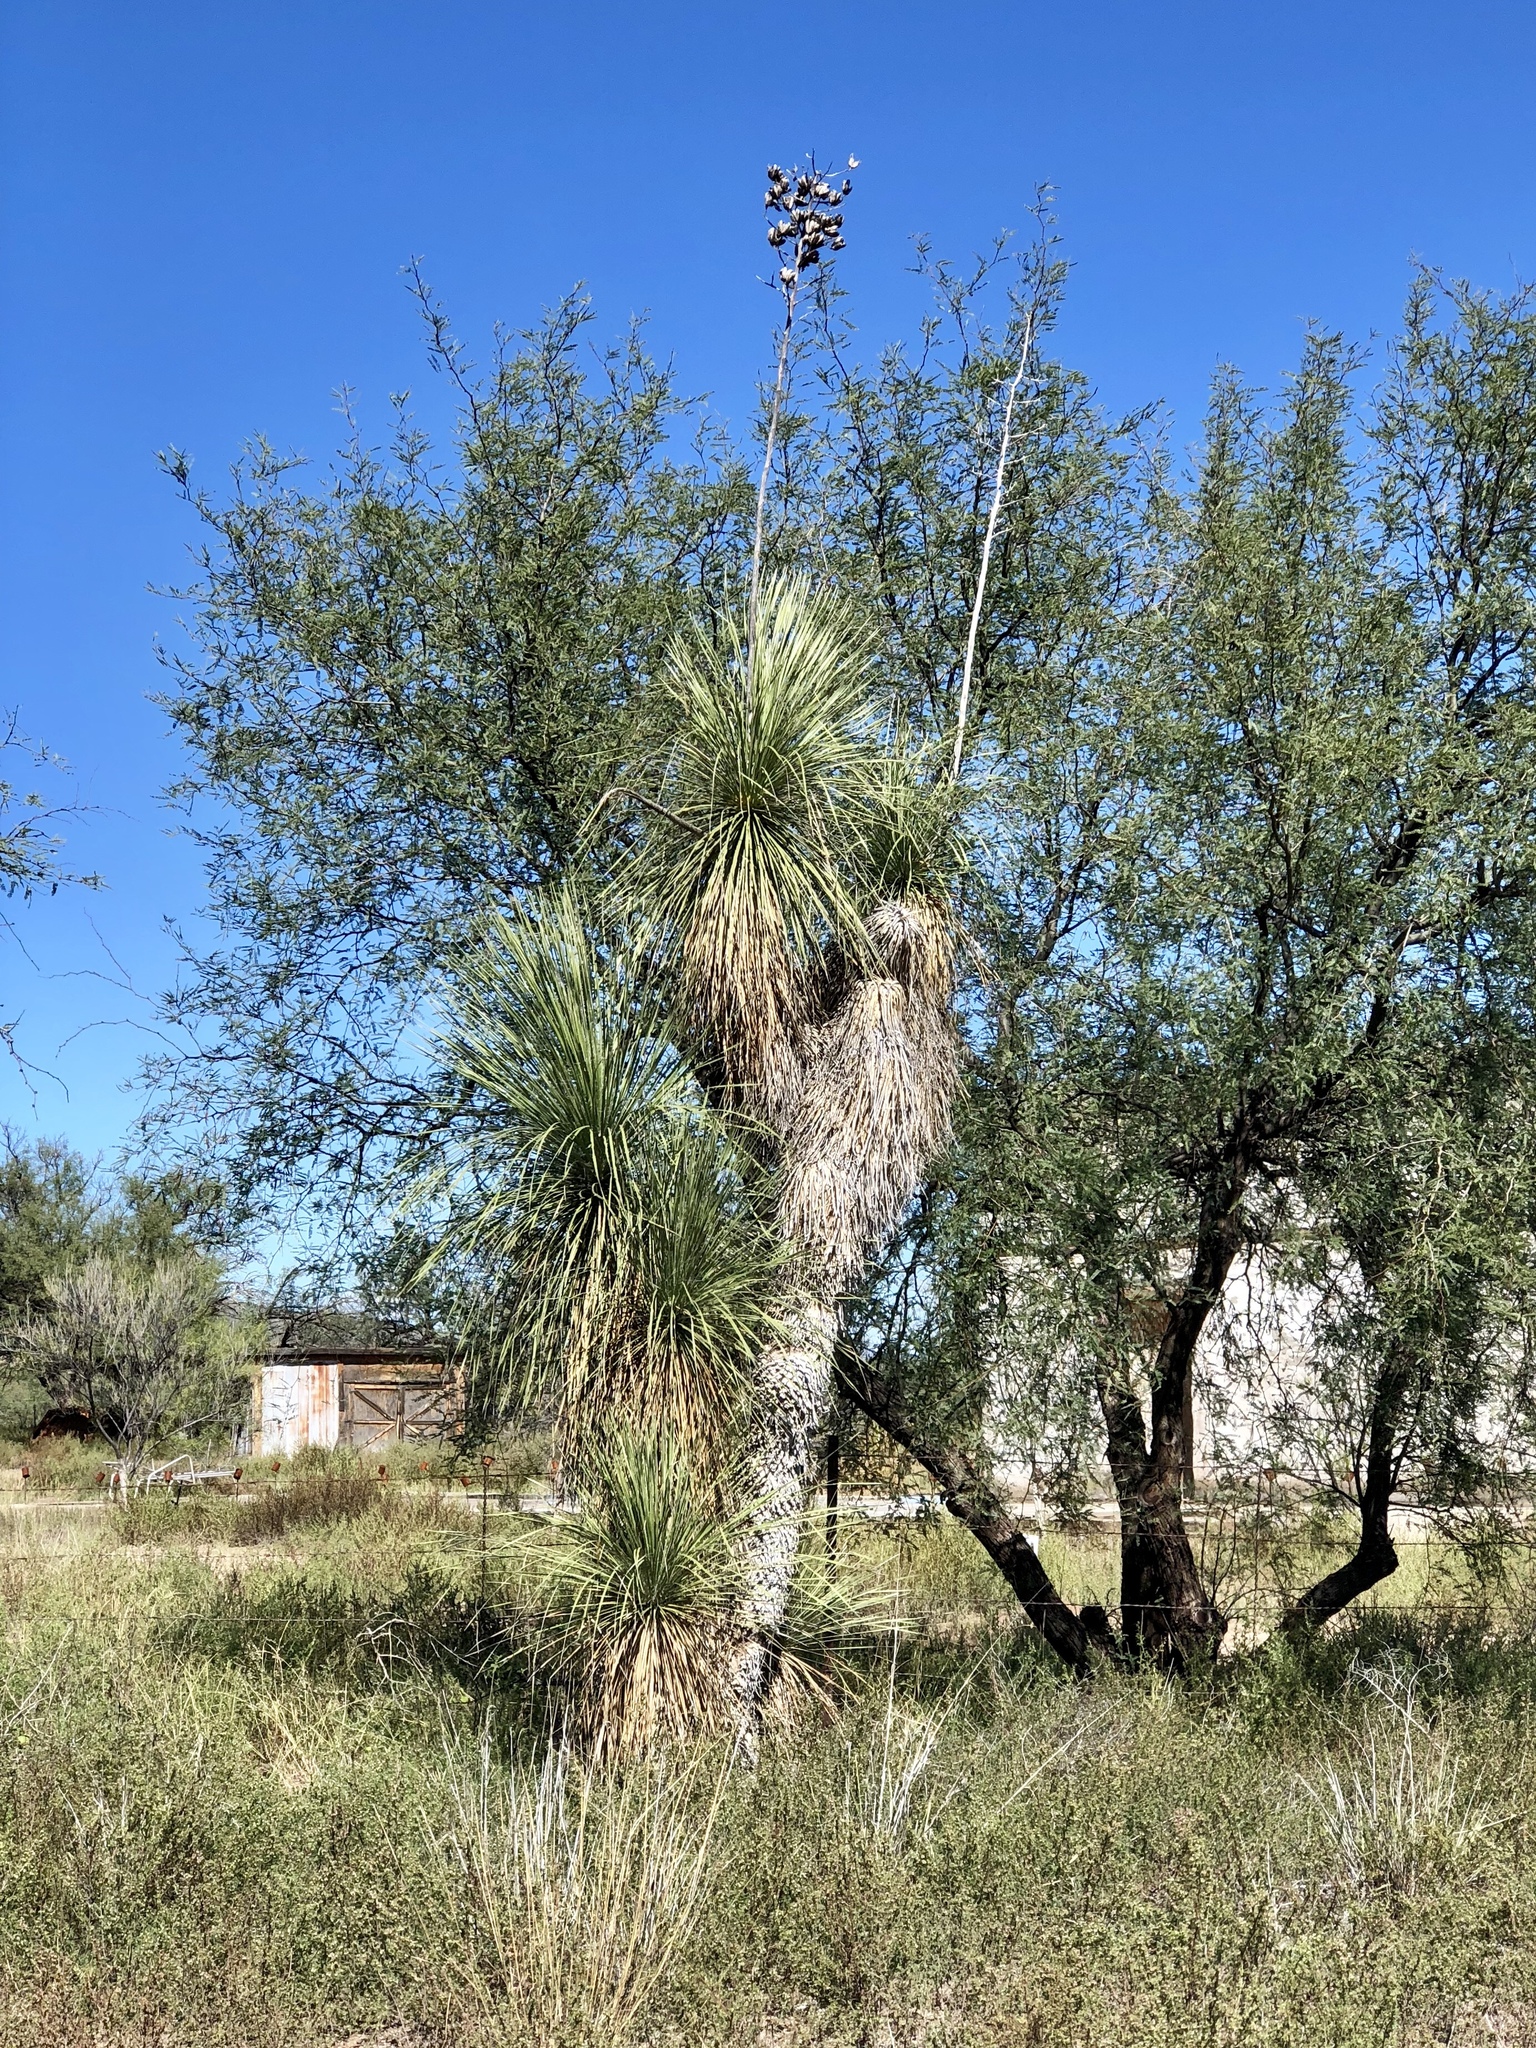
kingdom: Plantae
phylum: Tracheophyta
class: Liliopsida
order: Asparagales
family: Asparagaceae
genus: Yucca
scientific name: Yucca elata
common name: Palmella
